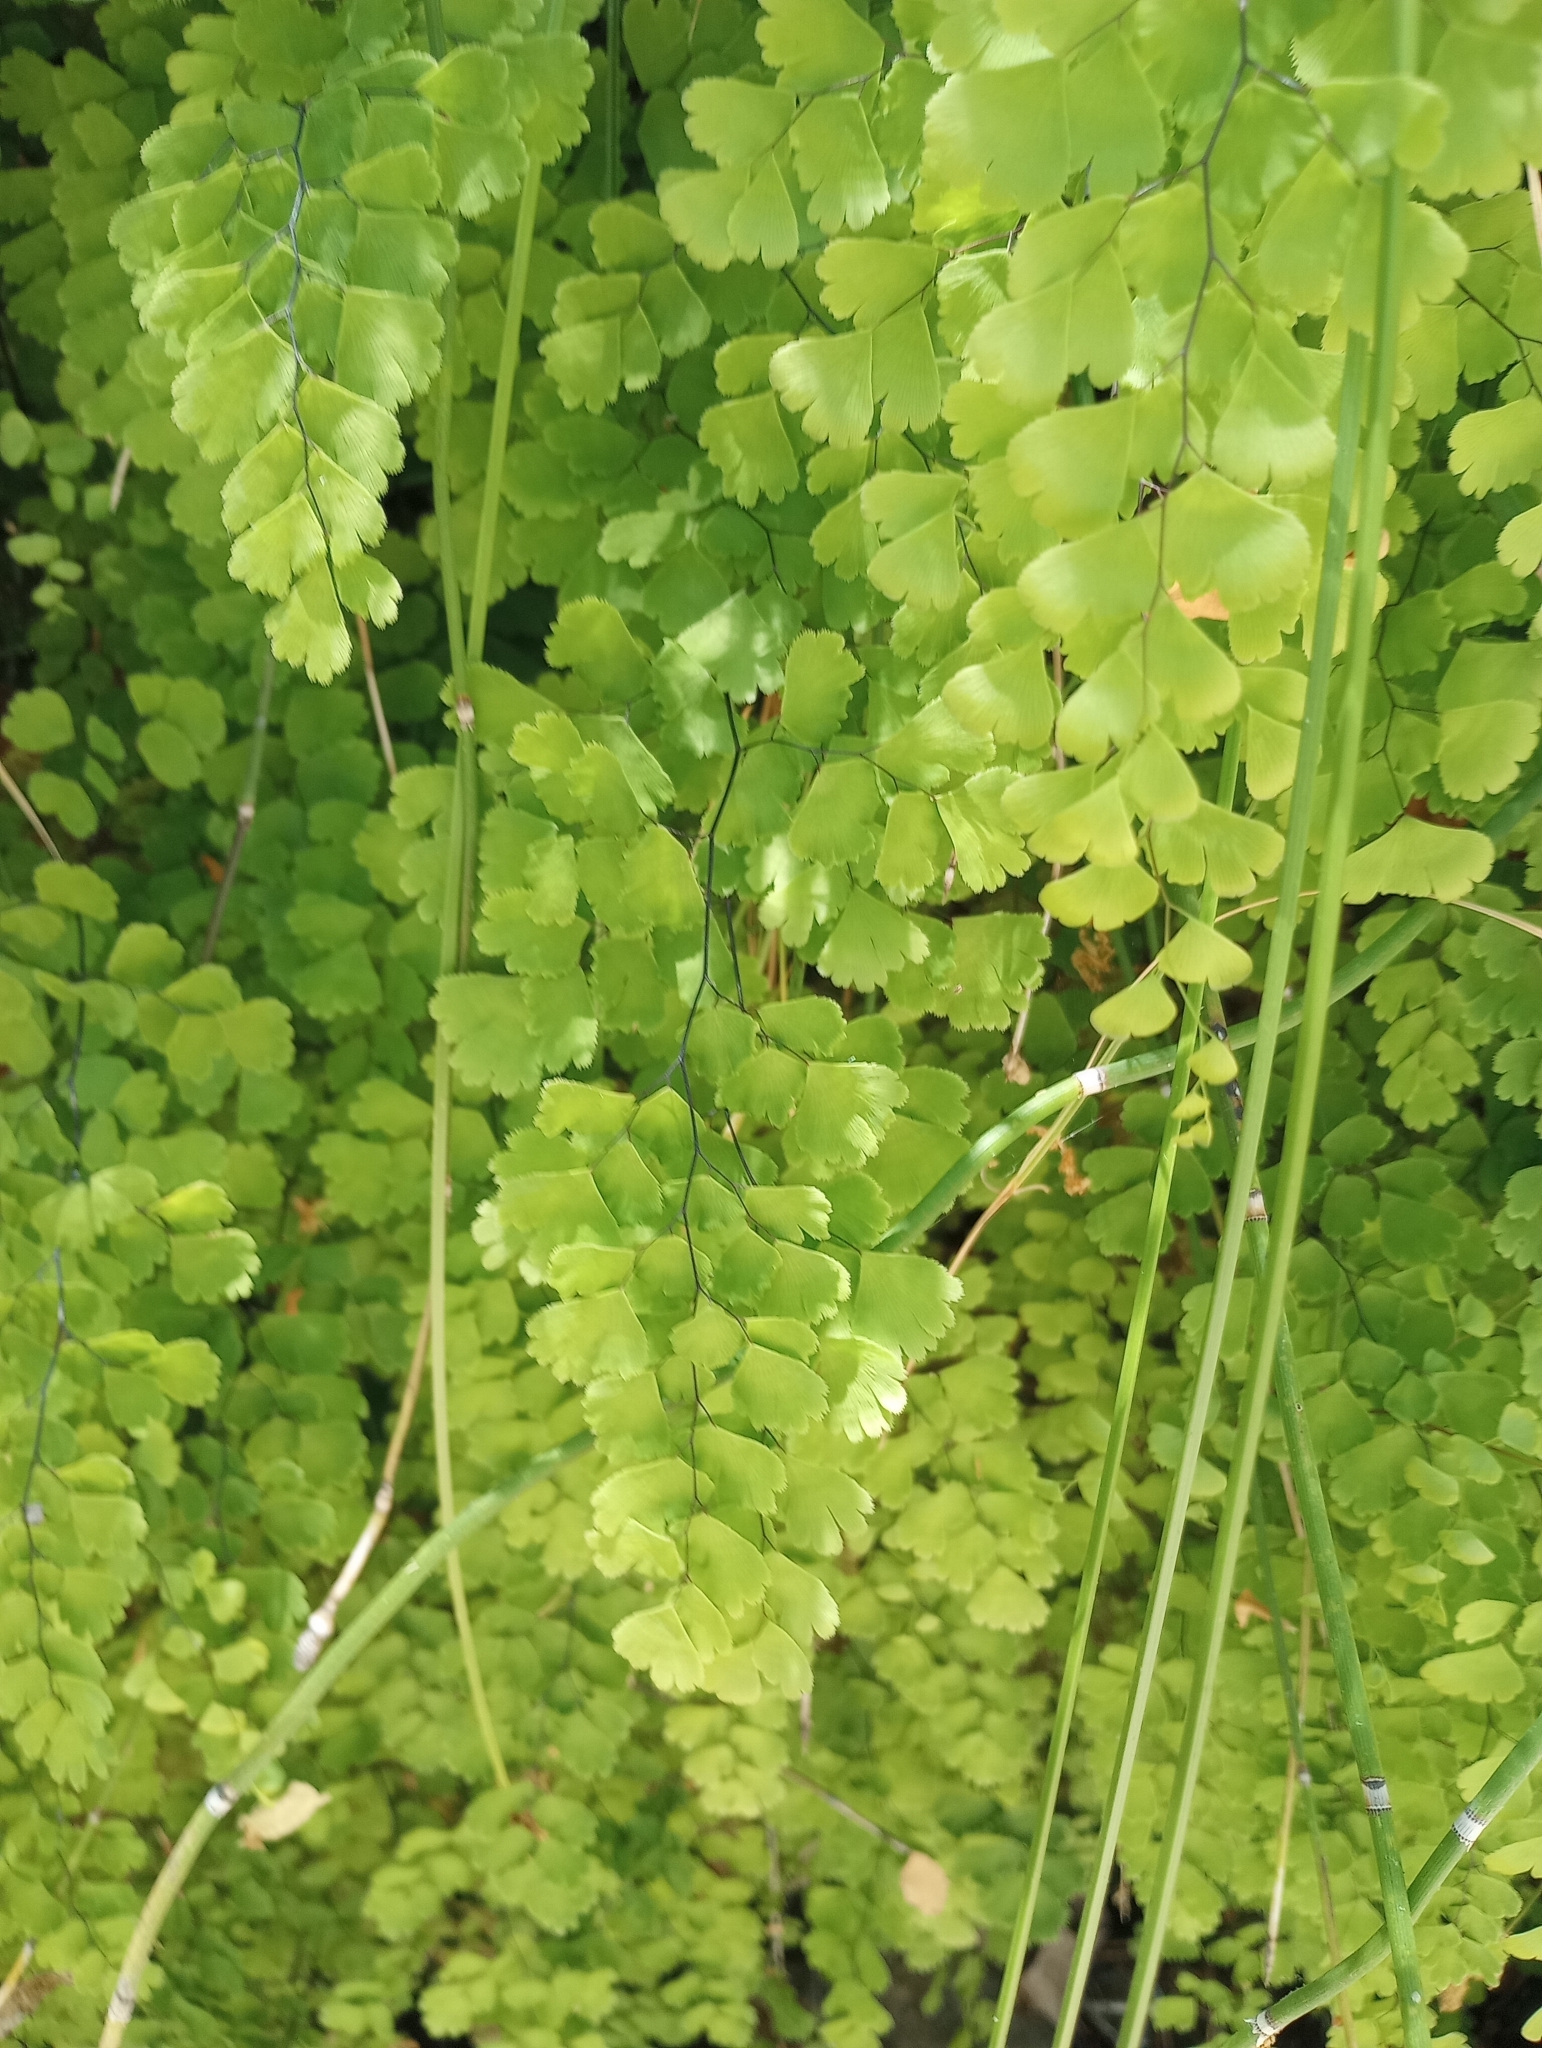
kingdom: Plantae
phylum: Tracheophyta
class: Polypodiopsida
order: Polypodiales
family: Pteridaceae
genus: Adiantum
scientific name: Adiantum capillus-veneris
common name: Maidenhair fern
